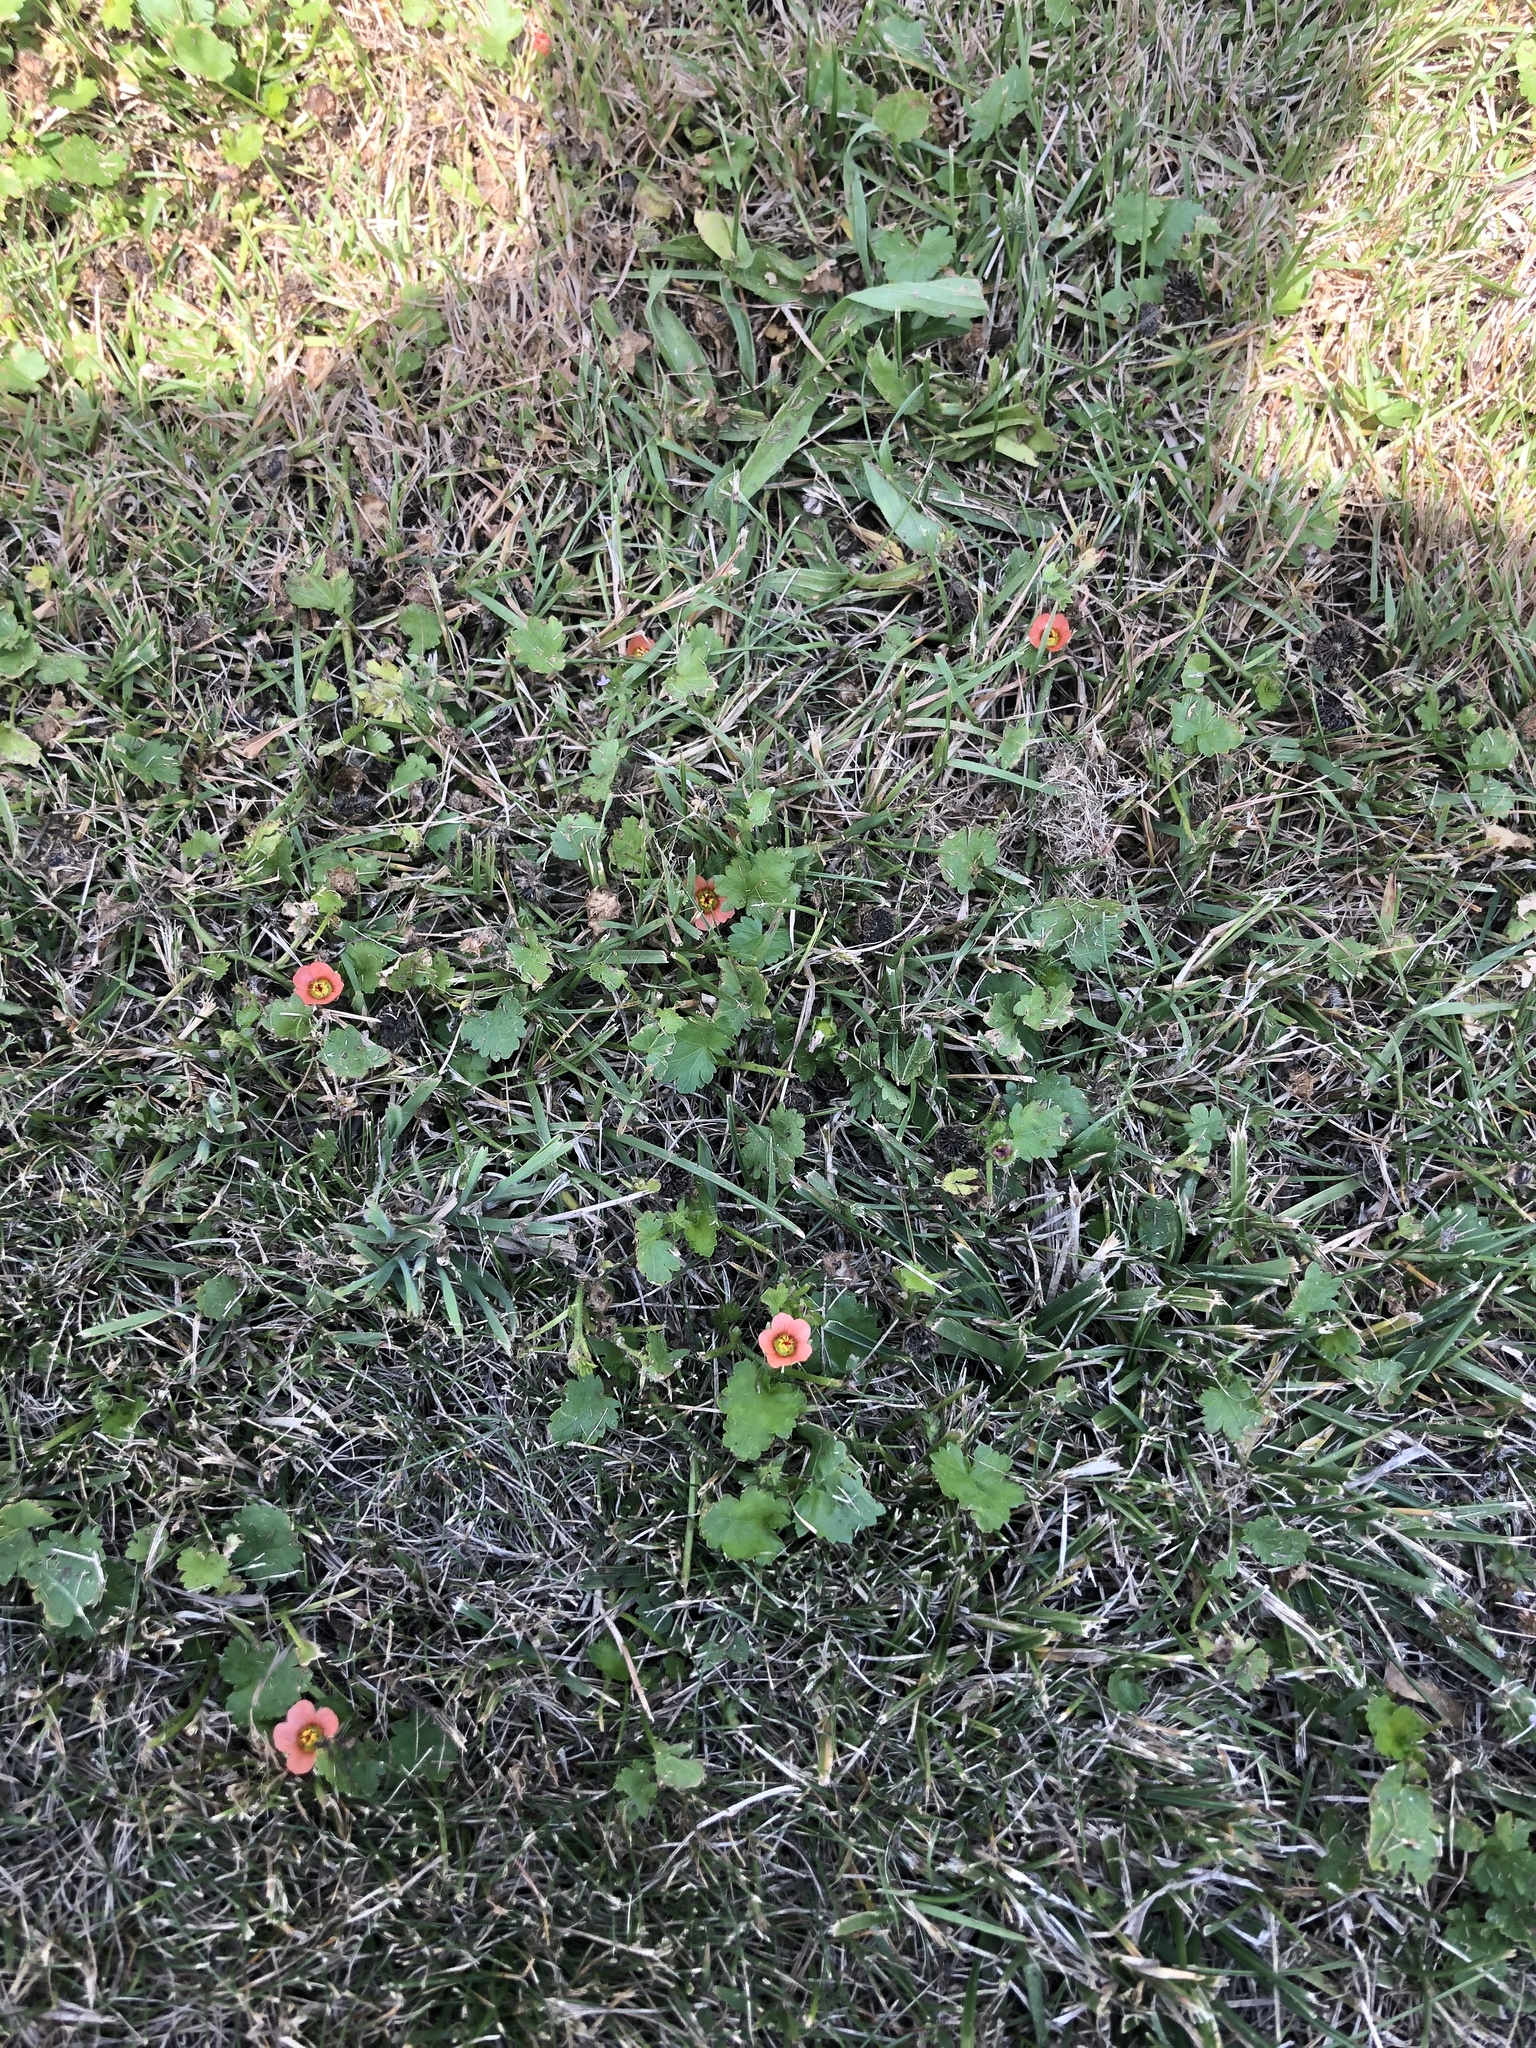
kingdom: Plantae
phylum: Tracheophyta
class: Magnoliopsida
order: Malvales
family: Malvaceae
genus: Modiola
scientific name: Modiola caroliniana
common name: Carolina bristlemallow
